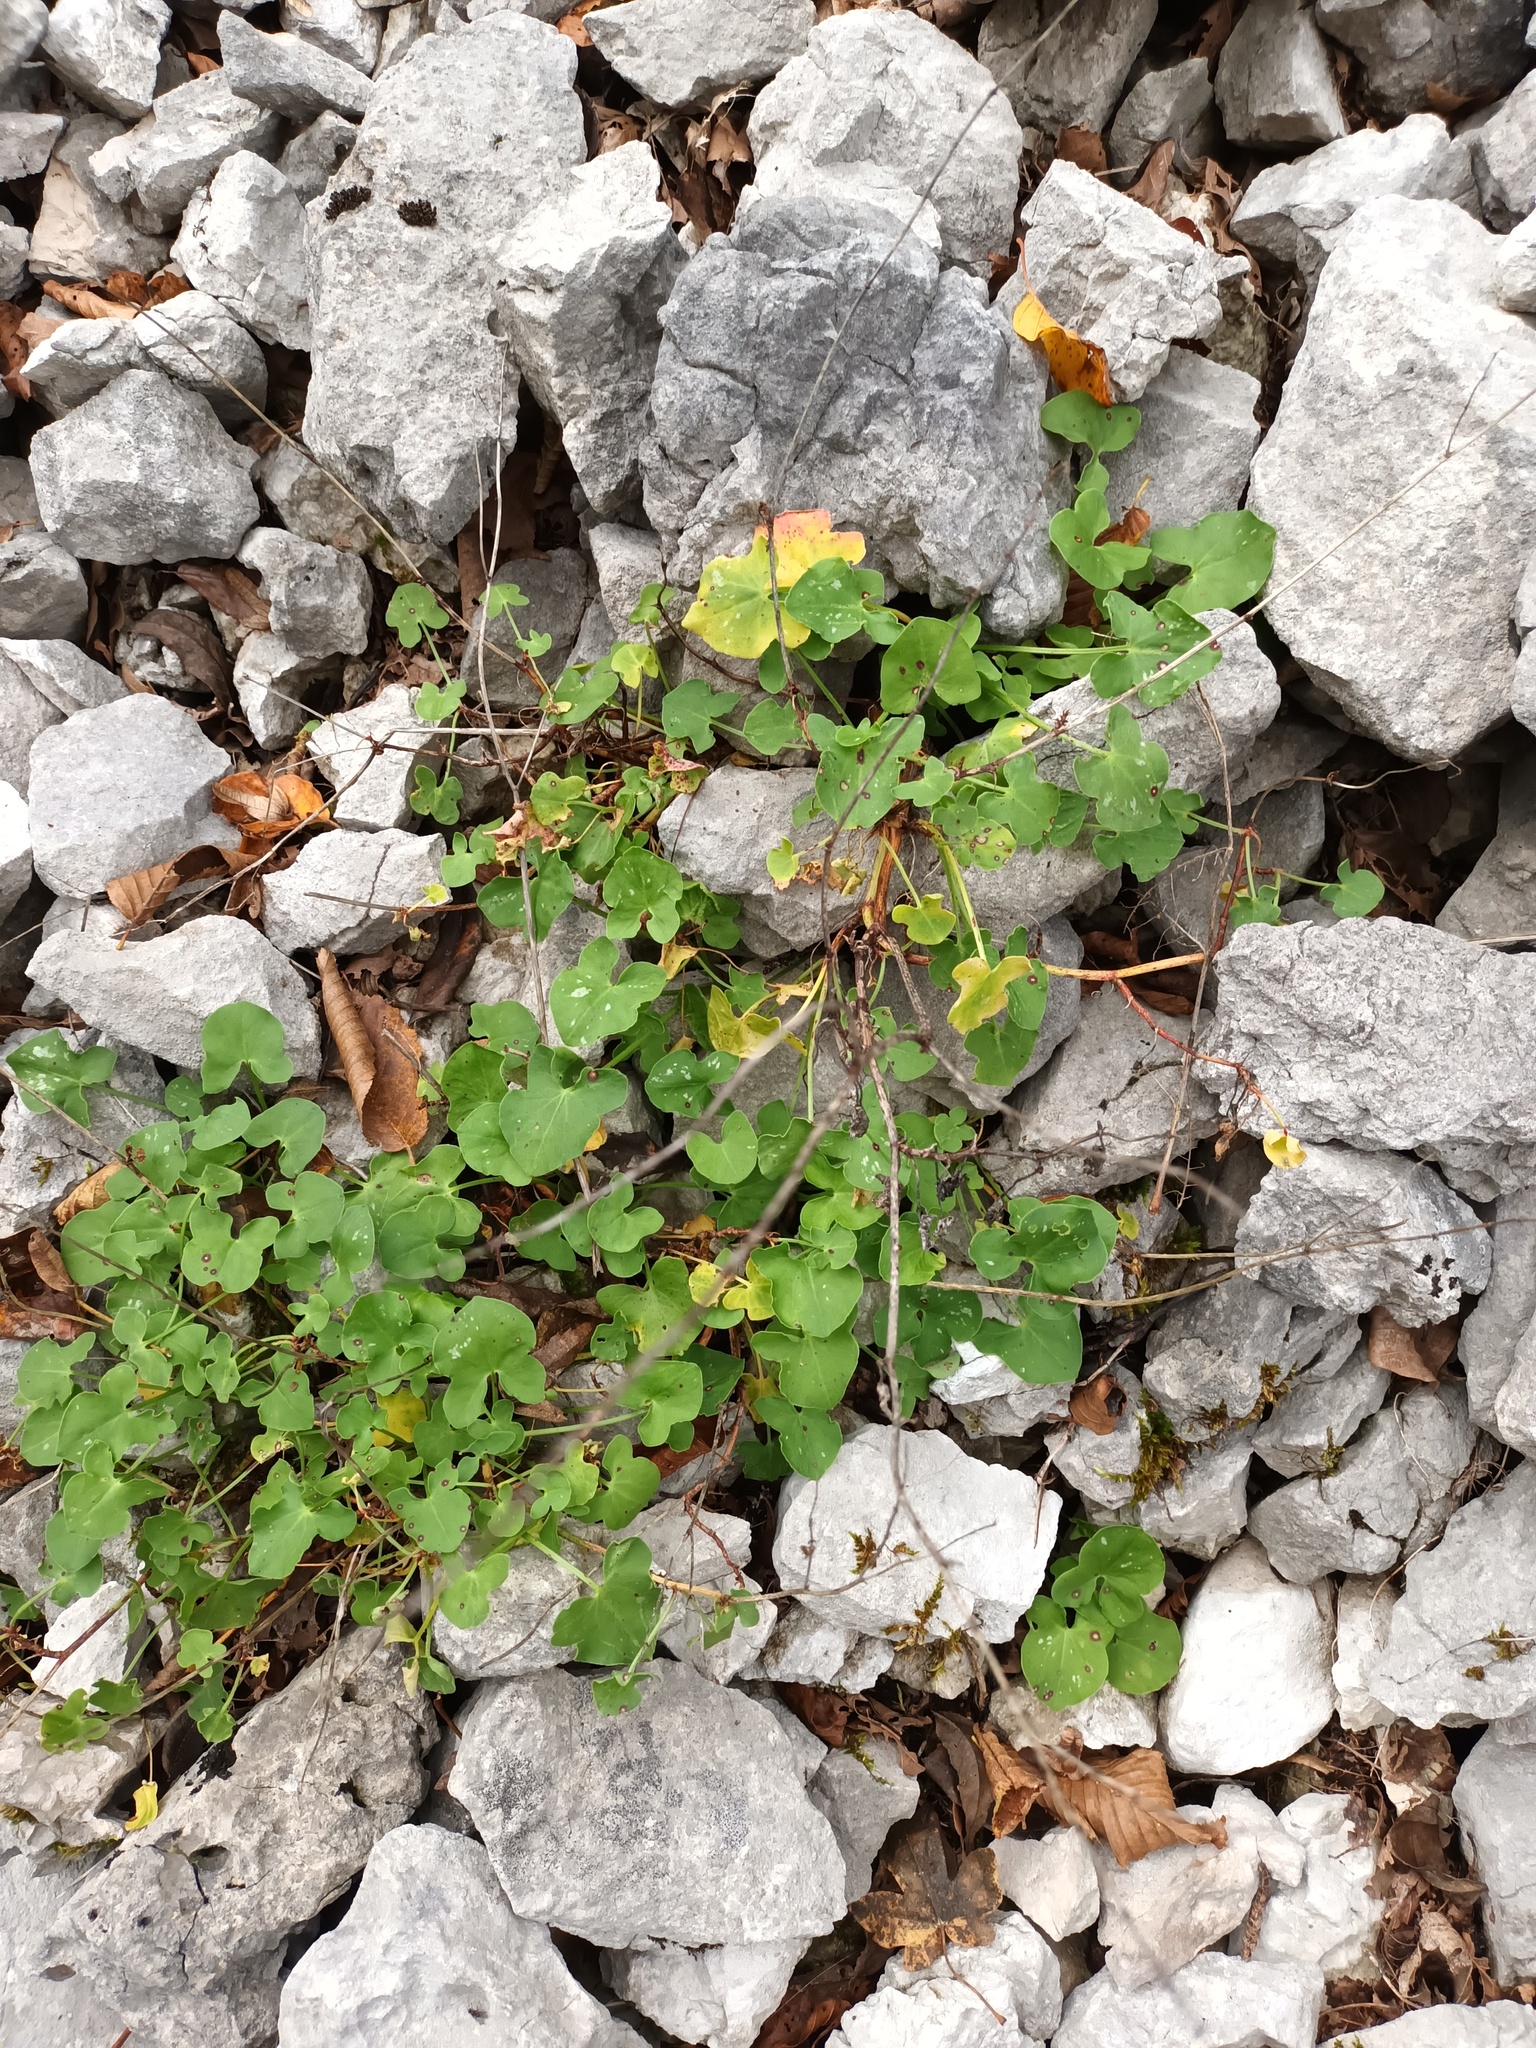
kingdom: Plantae
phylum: Tracheophyta
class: Magnoliopsida
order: Caryophyllales
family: Polygonaceae
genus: Rumex
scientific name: Rumex scutatus
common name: French sorrel
